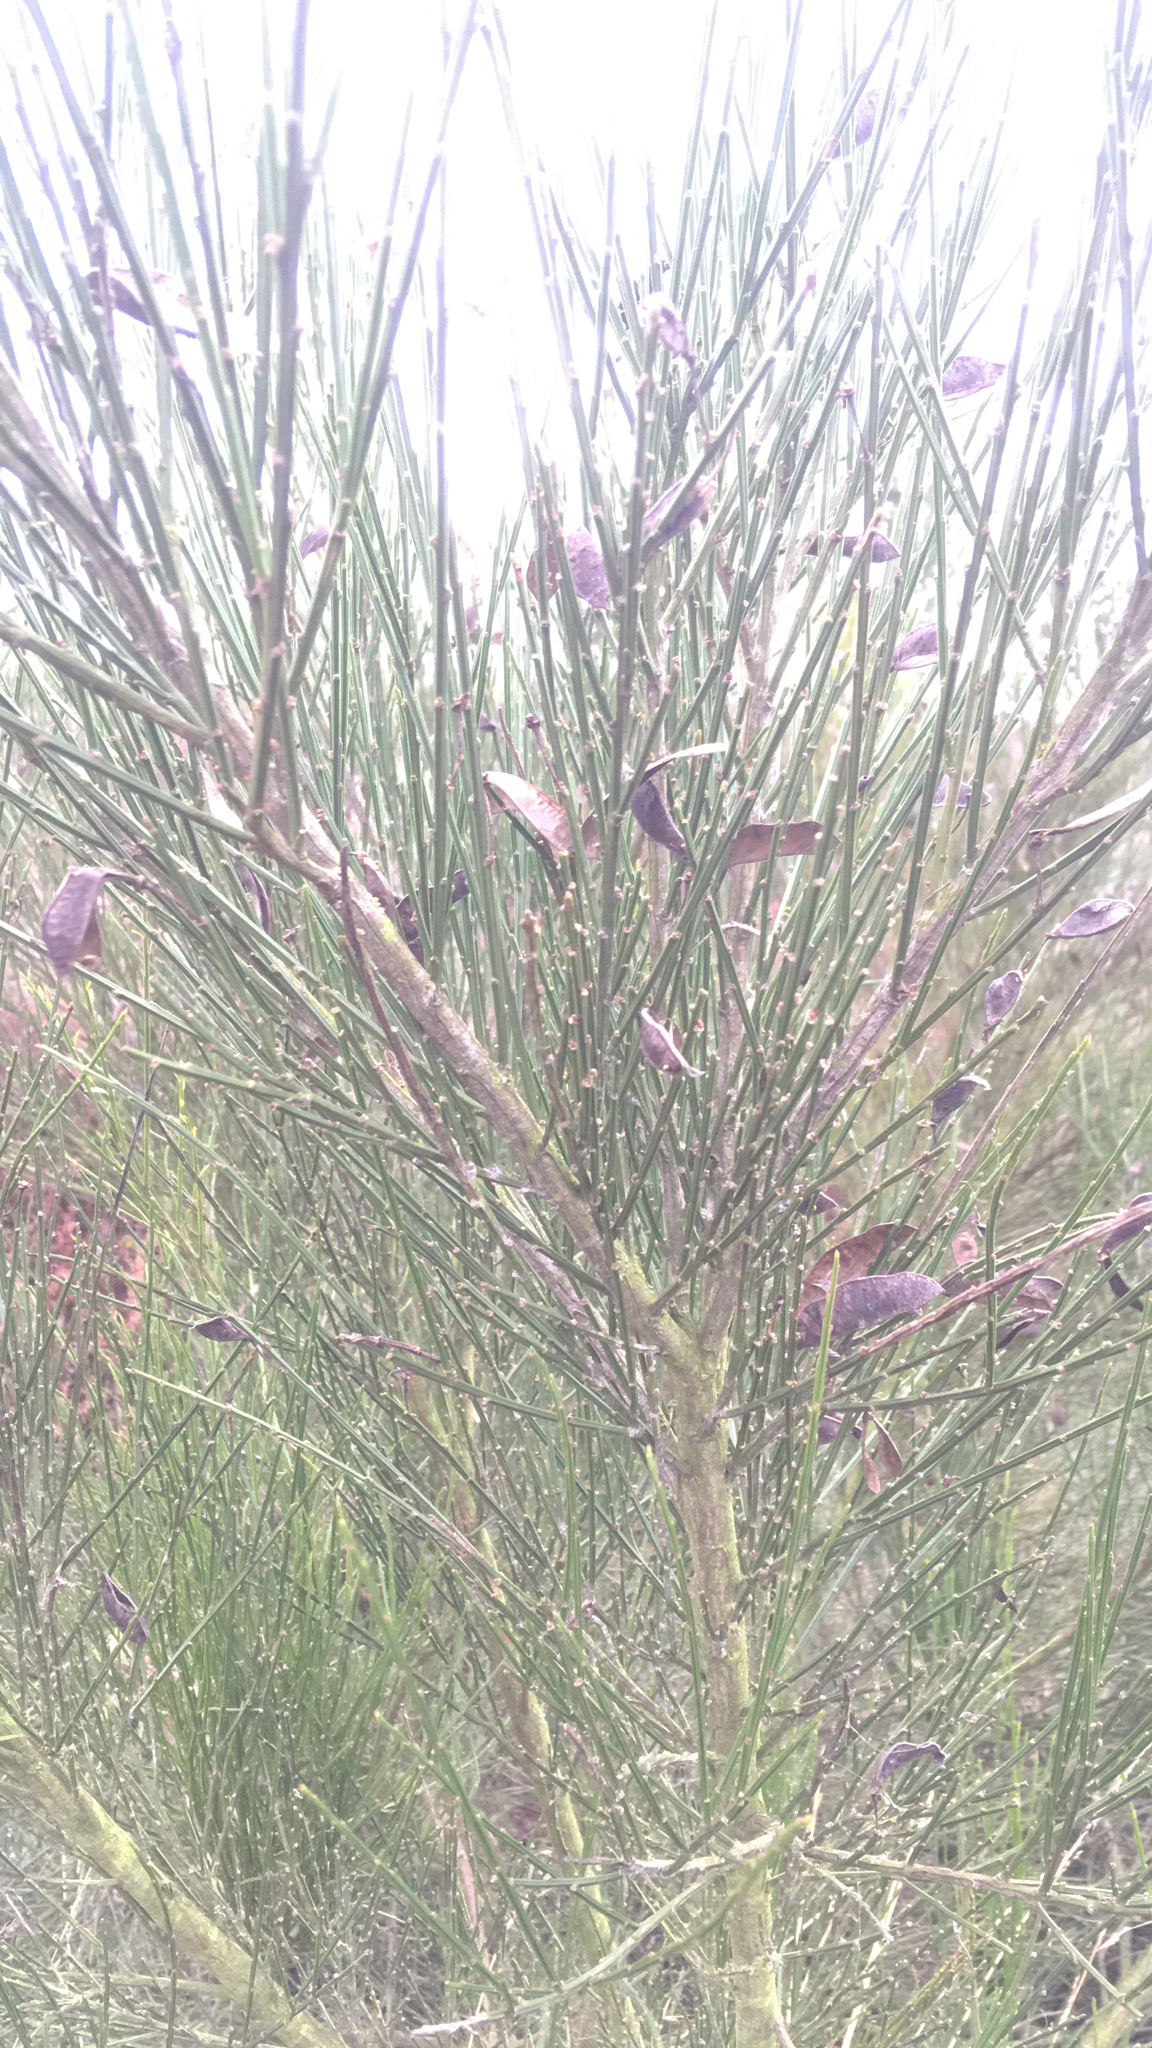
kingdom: Plantae
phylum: Tracheophyta
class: Magnoliopsida
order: Fabales
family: Fabaceae
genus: Cytisus
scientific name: Cytisus scoparius
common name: Scotch broom
